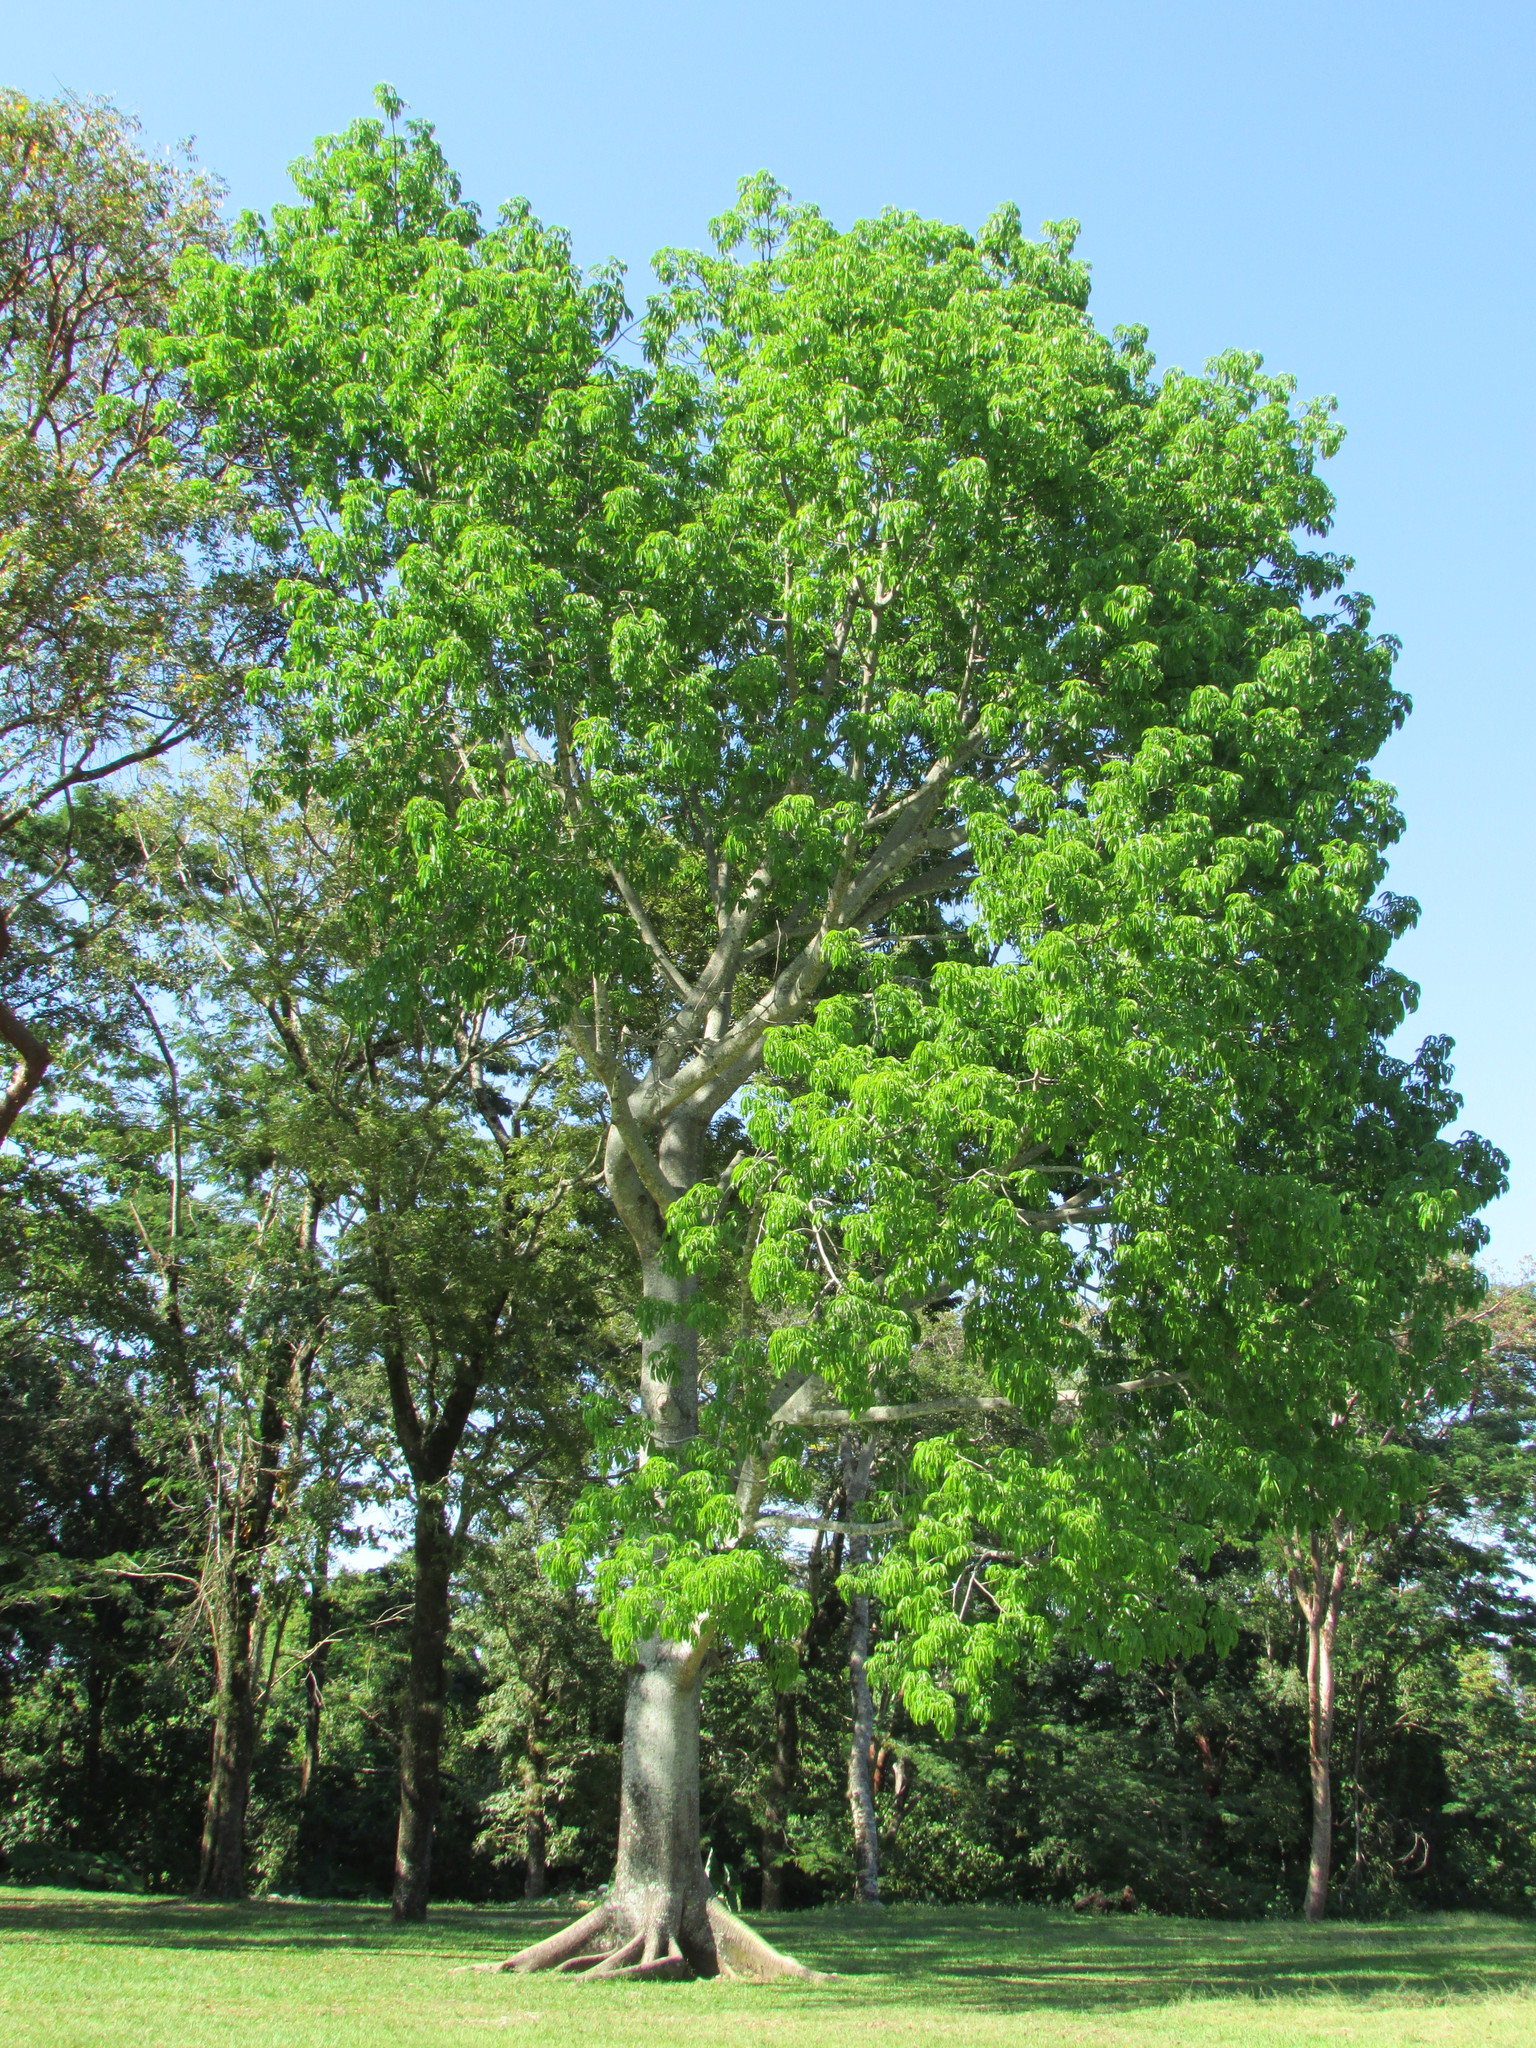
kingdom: Plantae
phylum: Tracheophyta
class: Magnoliopsida
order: Malvales
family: Malvaceae
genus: Ceiba
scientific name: Ceiba pentandra
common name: Kapok
